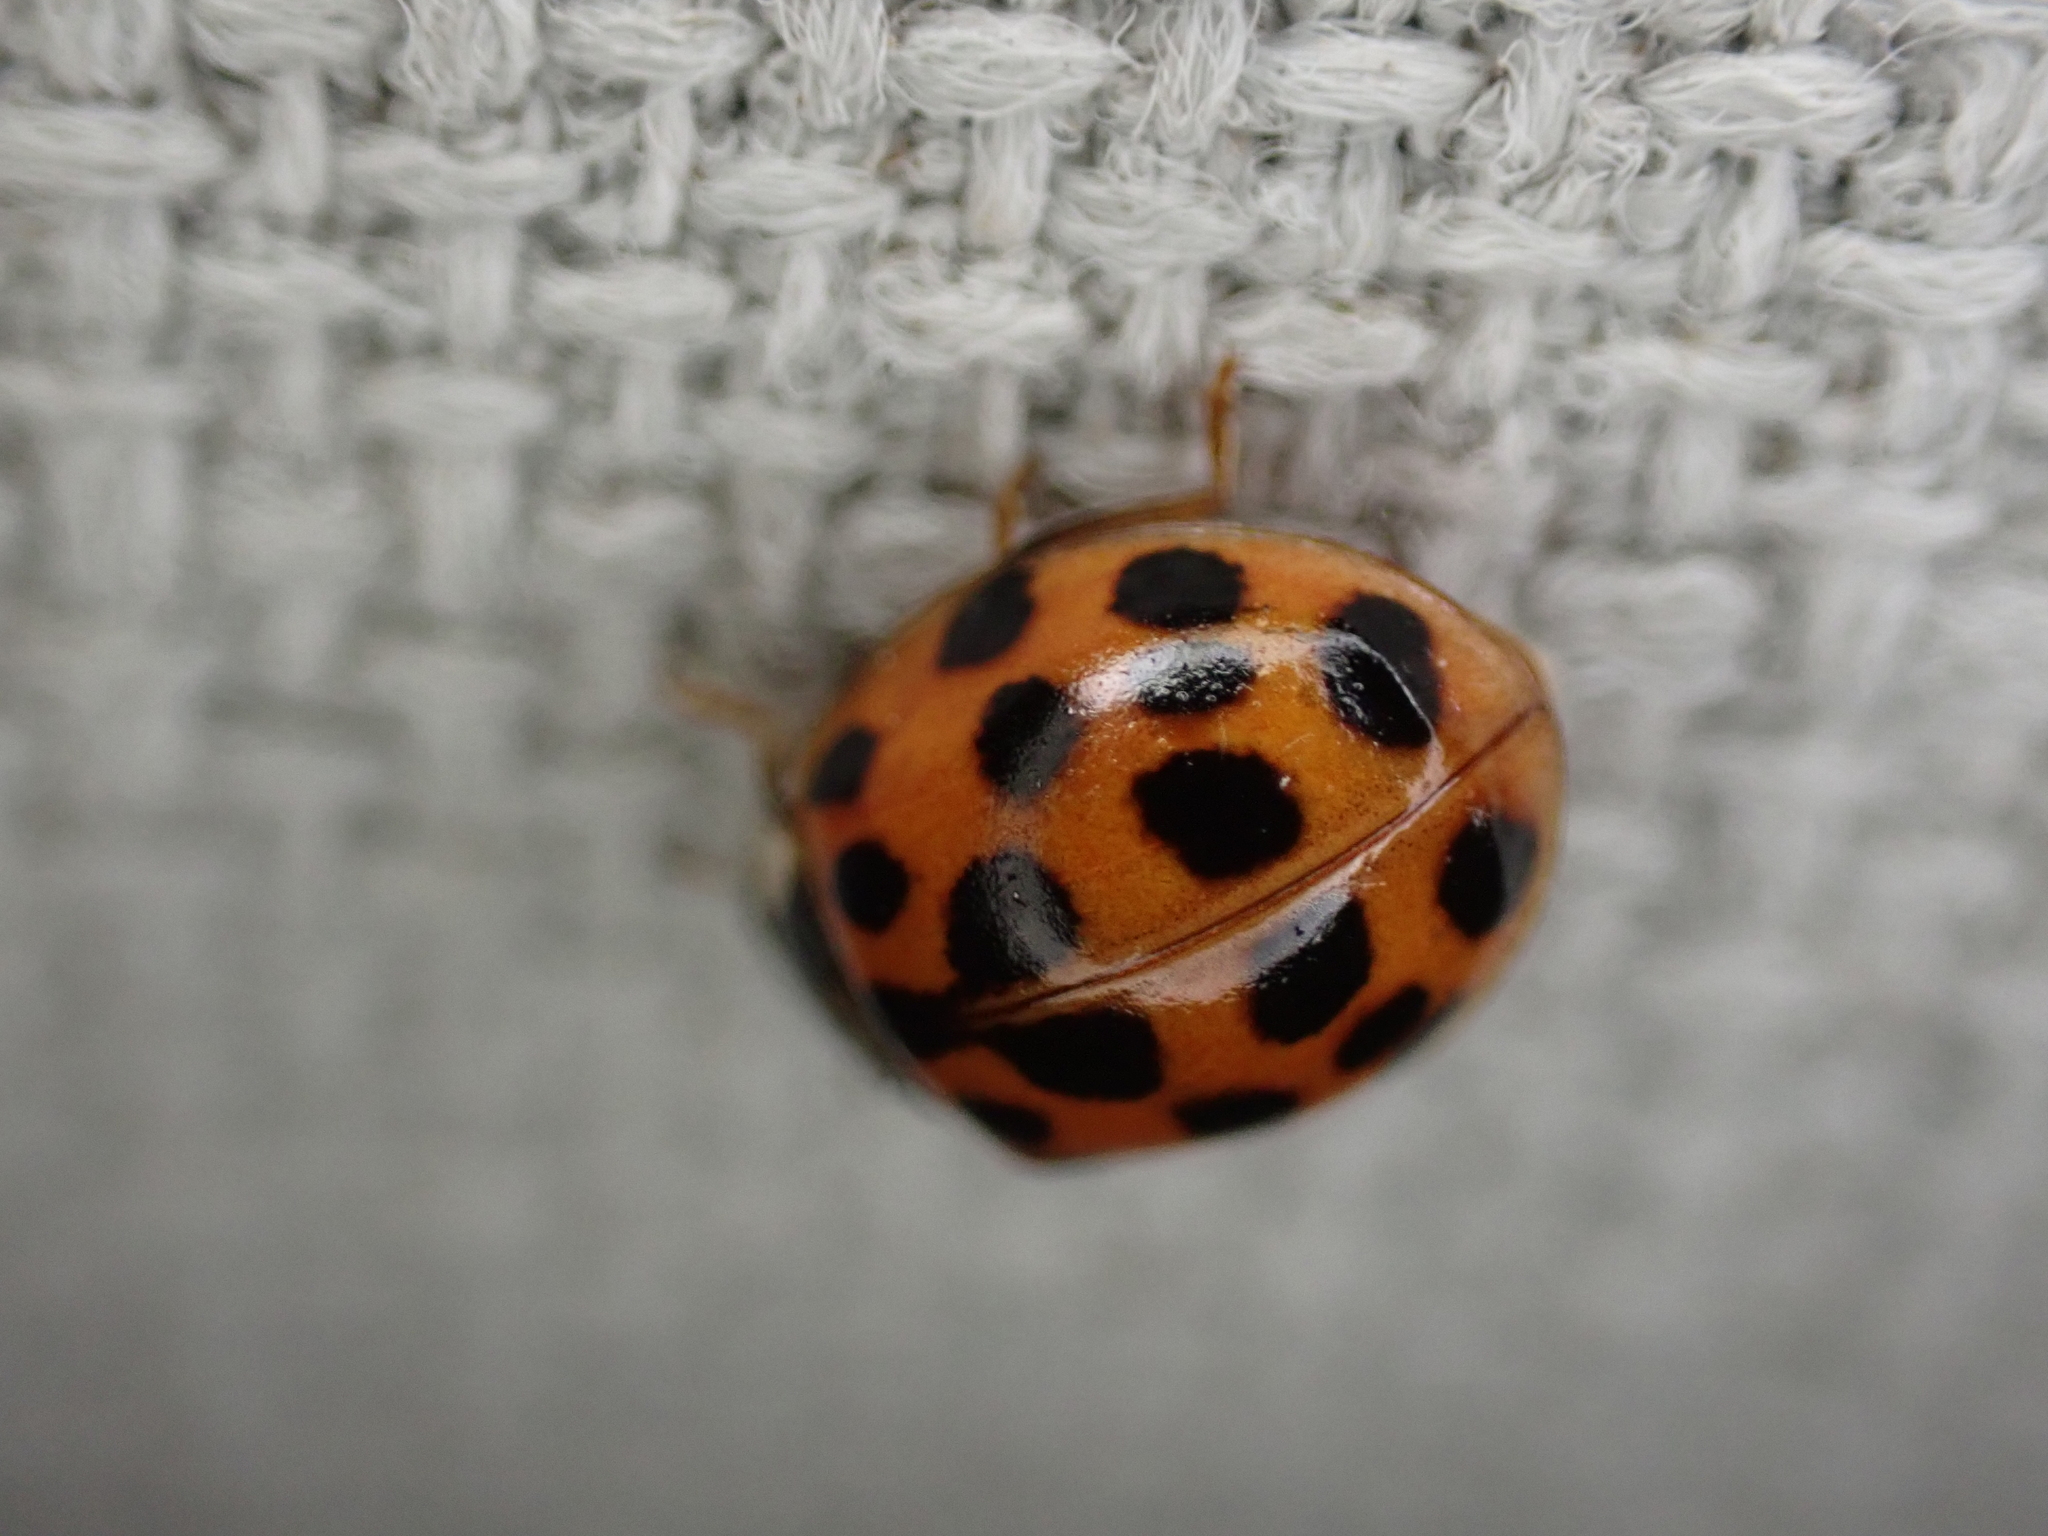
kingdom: Animalia
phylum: Arthropoda
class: Insecta
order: Coleoptera
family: Coccinellidae
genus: Harmonia
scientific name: Harmonia axyridis
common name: Harlequin ladybird
